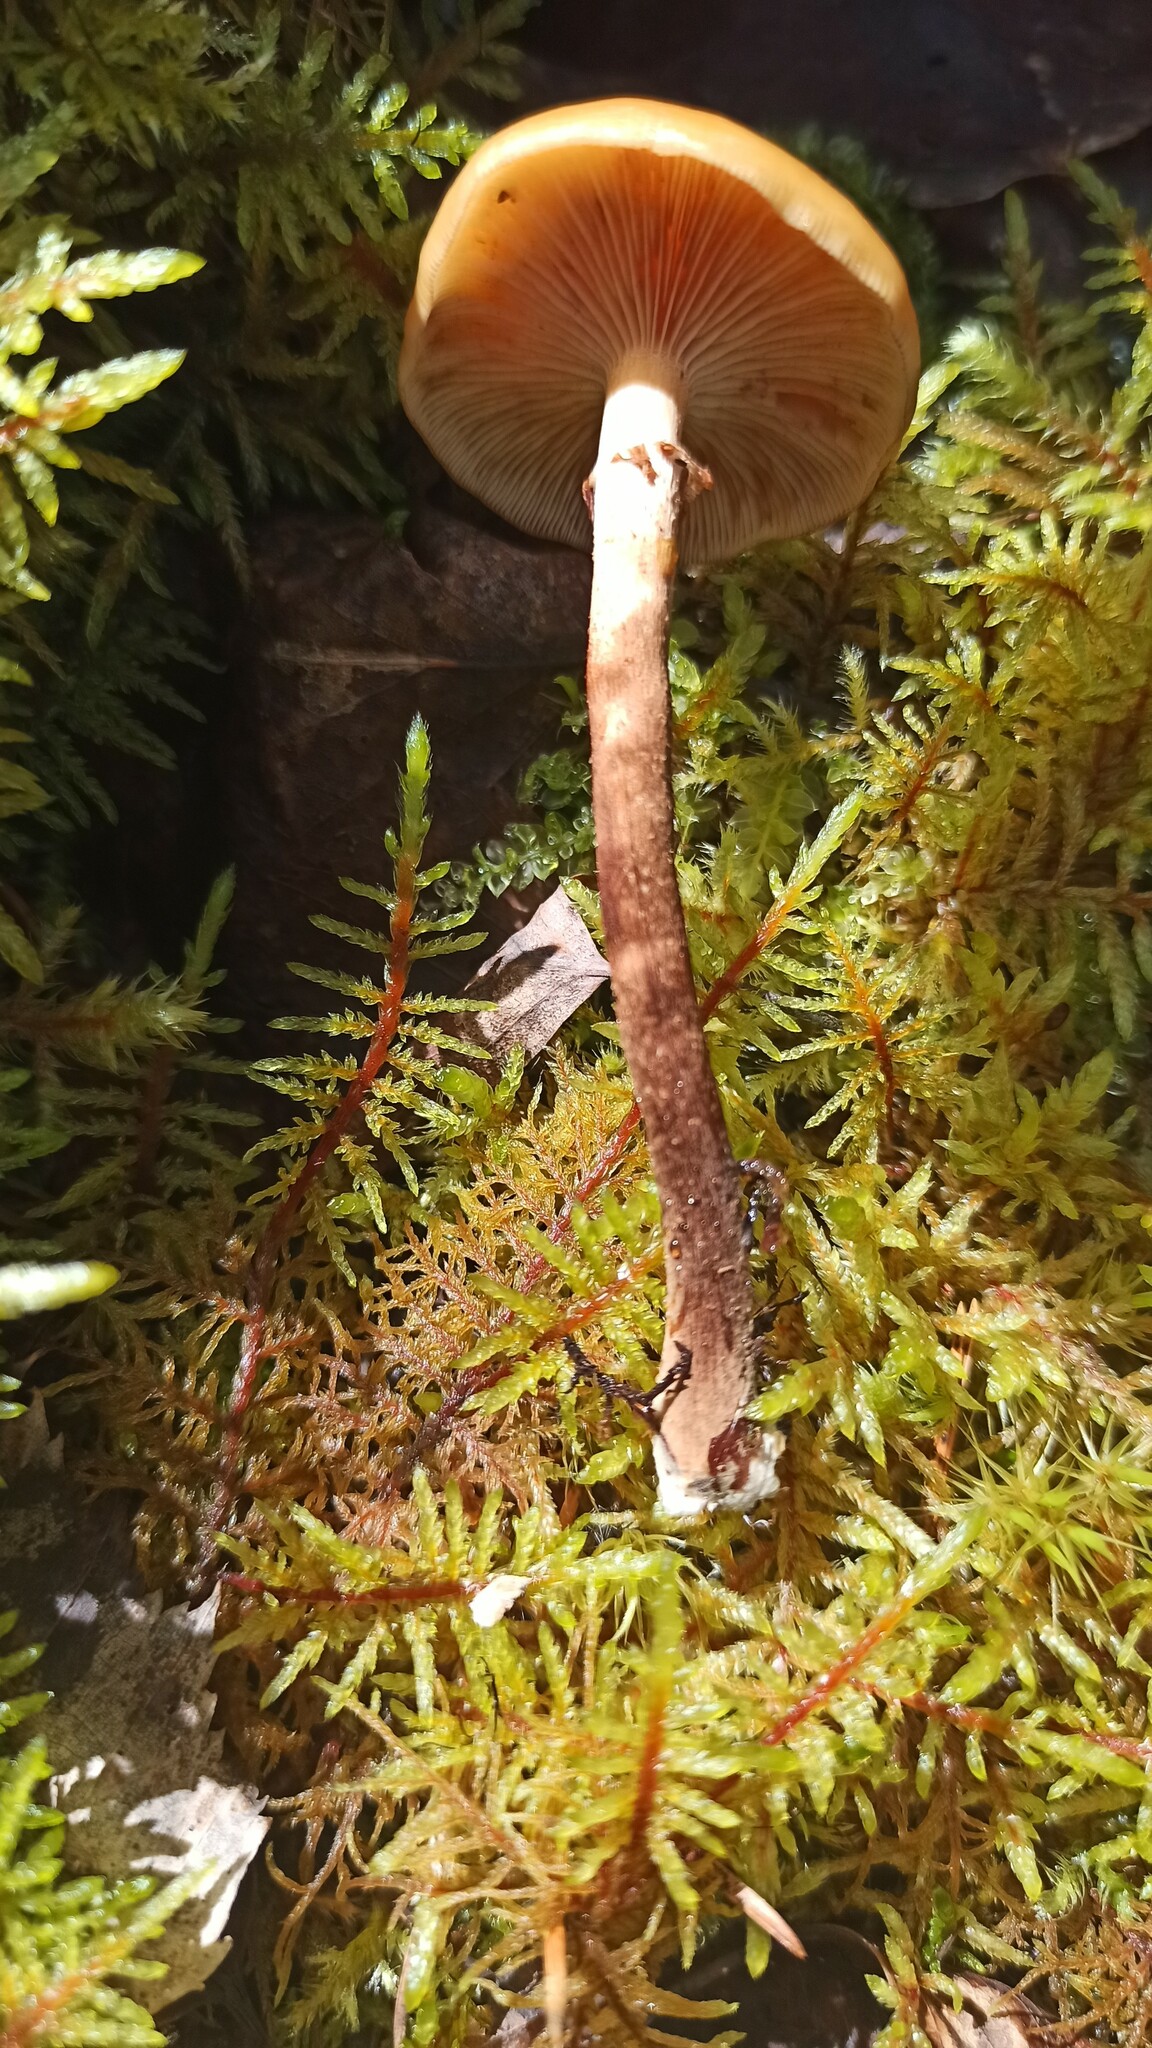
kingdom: Fungi
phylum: Basidiomycota
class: Agaricomycetes
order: Agaricales
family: Strophariaceae
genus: Kuehneromyces
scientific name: Kuehneromyces mutabilis
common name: Sheathed woodtuft
